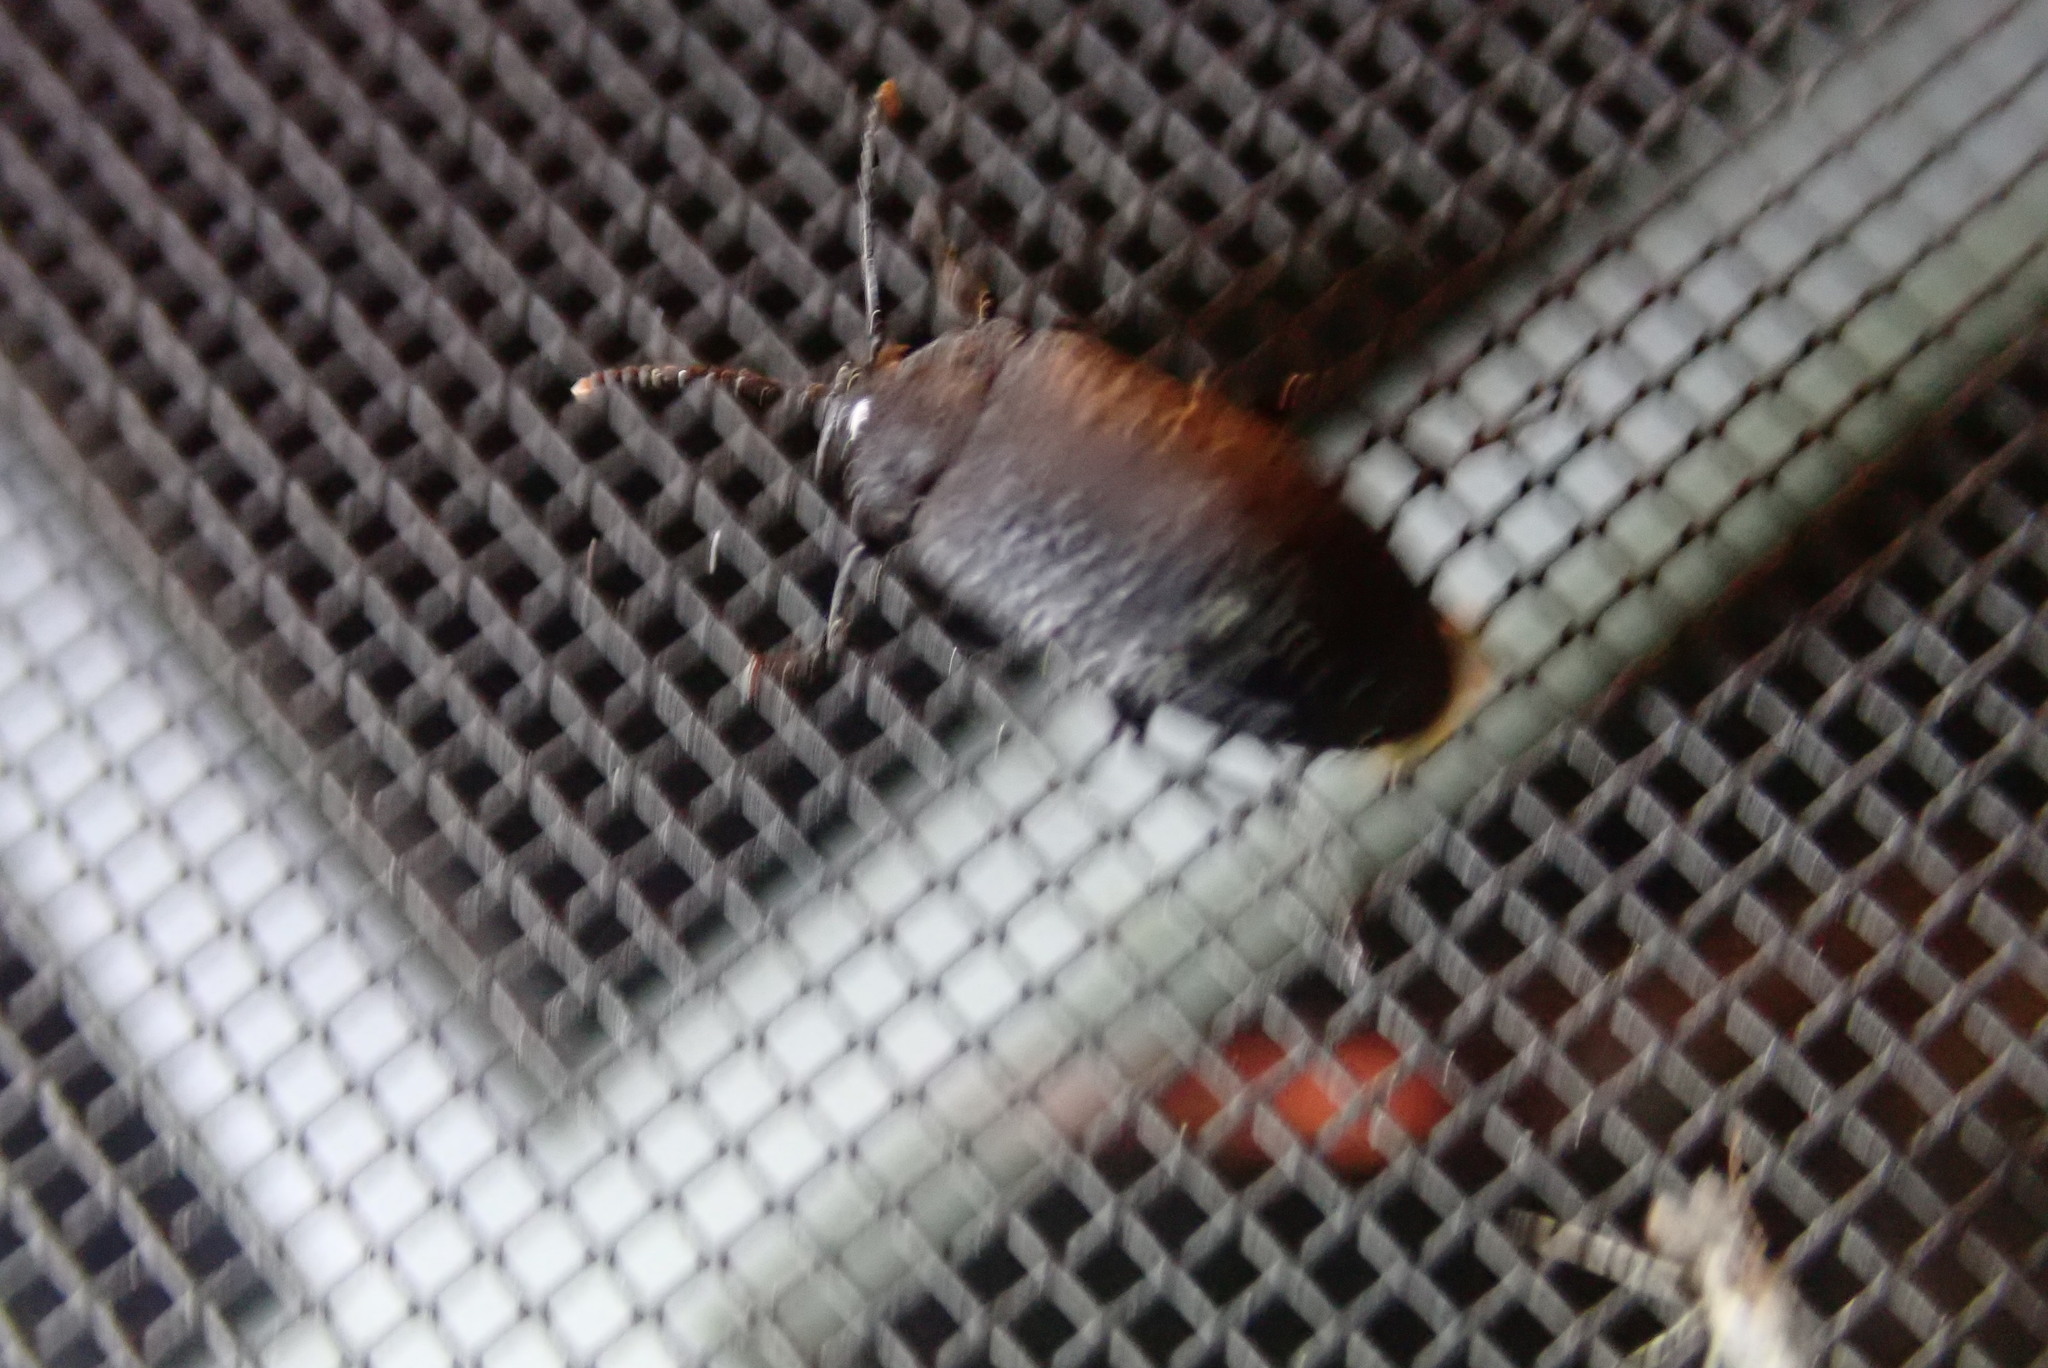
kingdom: Animalia
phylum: Arthropoda
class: Insecta
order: Coleoptera
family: Tetratomidae
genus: Penthe
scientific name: Penthe pimelia
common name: Velvety bark beetle
